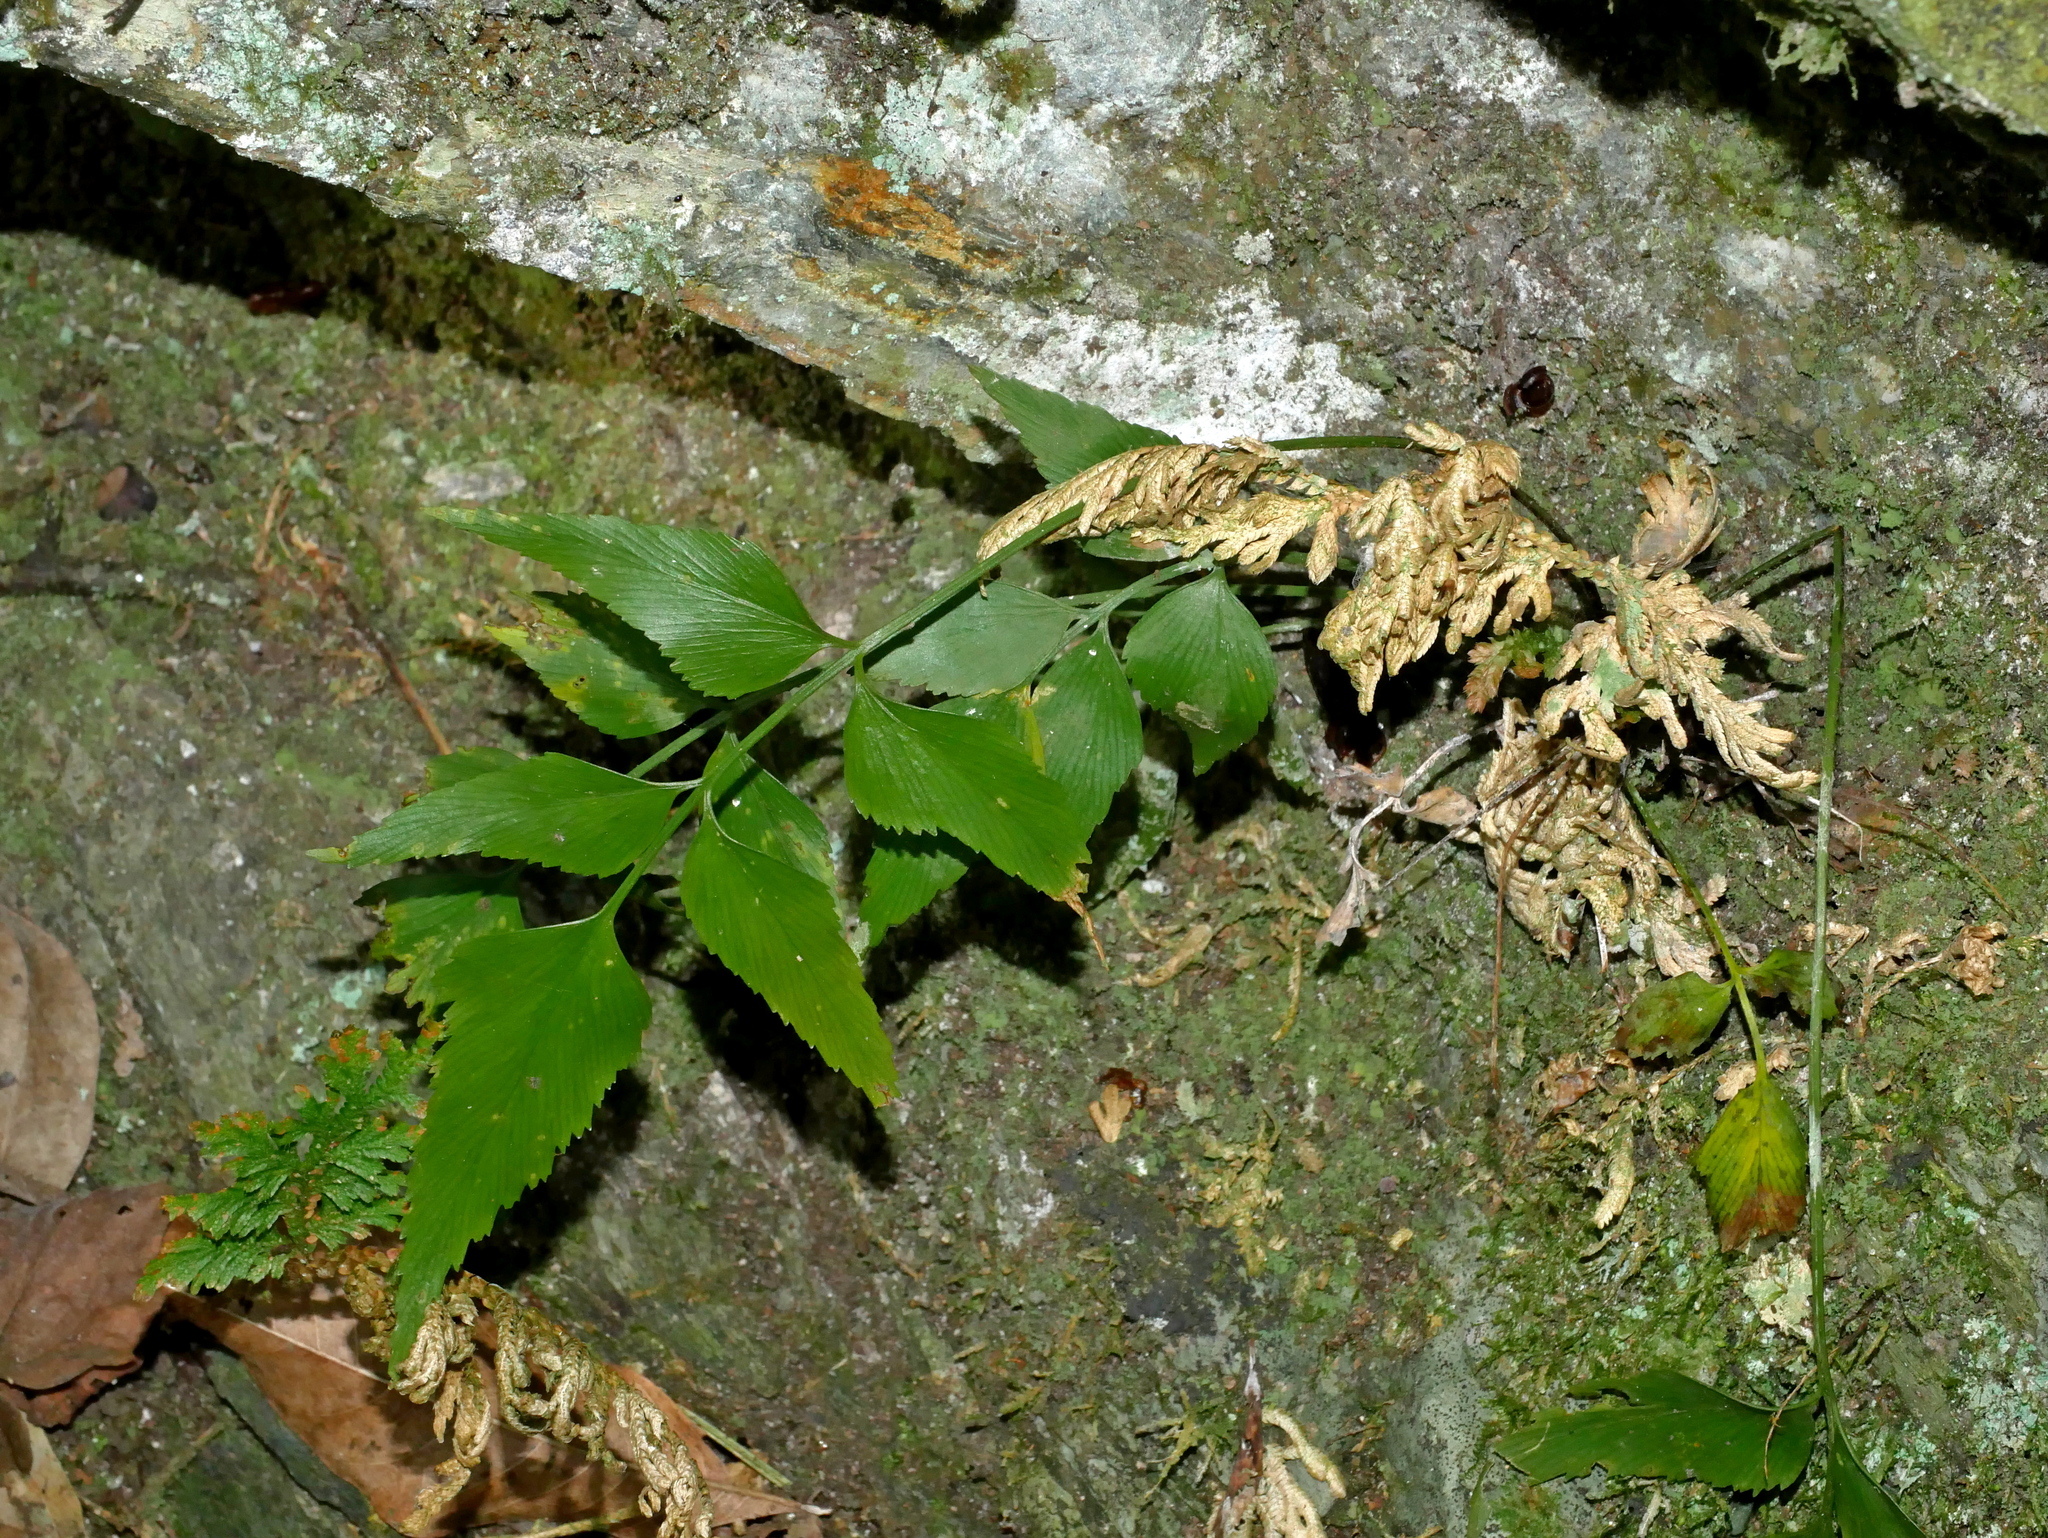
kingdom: Plantae
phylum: Tracheophyta
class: Polypodiopsida
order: Polypodiales
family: Aspleniaceae
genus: Asplenium
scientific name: Asplenium falcatum
